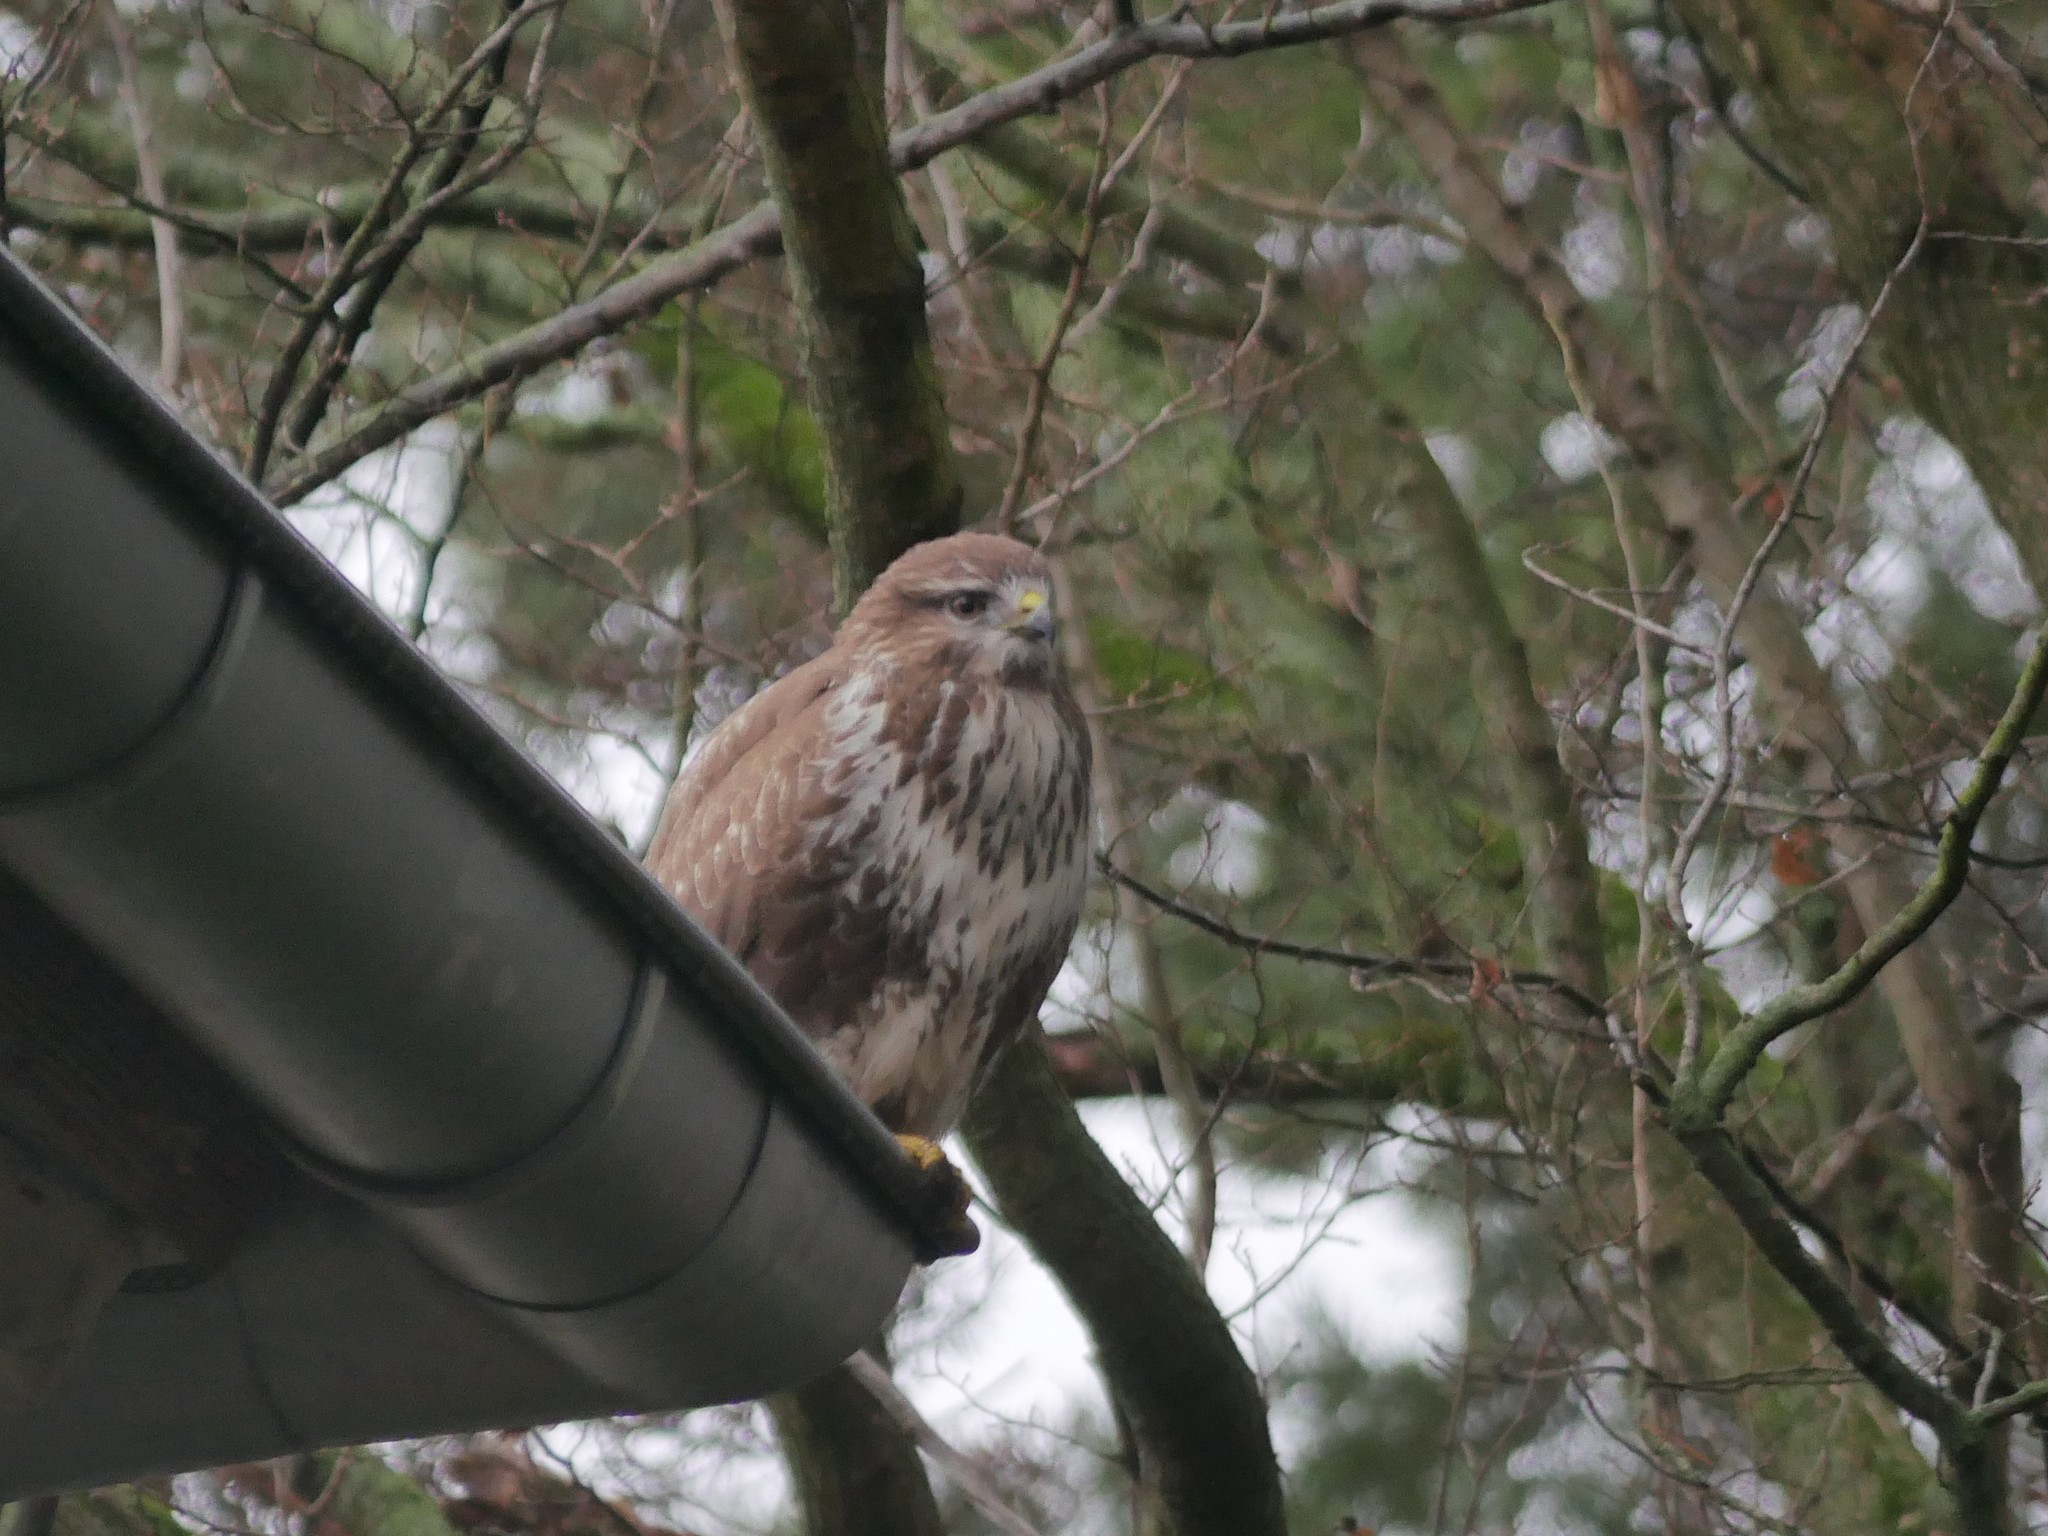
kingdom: Animalia
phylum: Chordata
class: Aves
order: Accipitriformes
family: Accipitridae
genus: Buteo
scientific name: Buteo buteo
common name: Common buzzard
